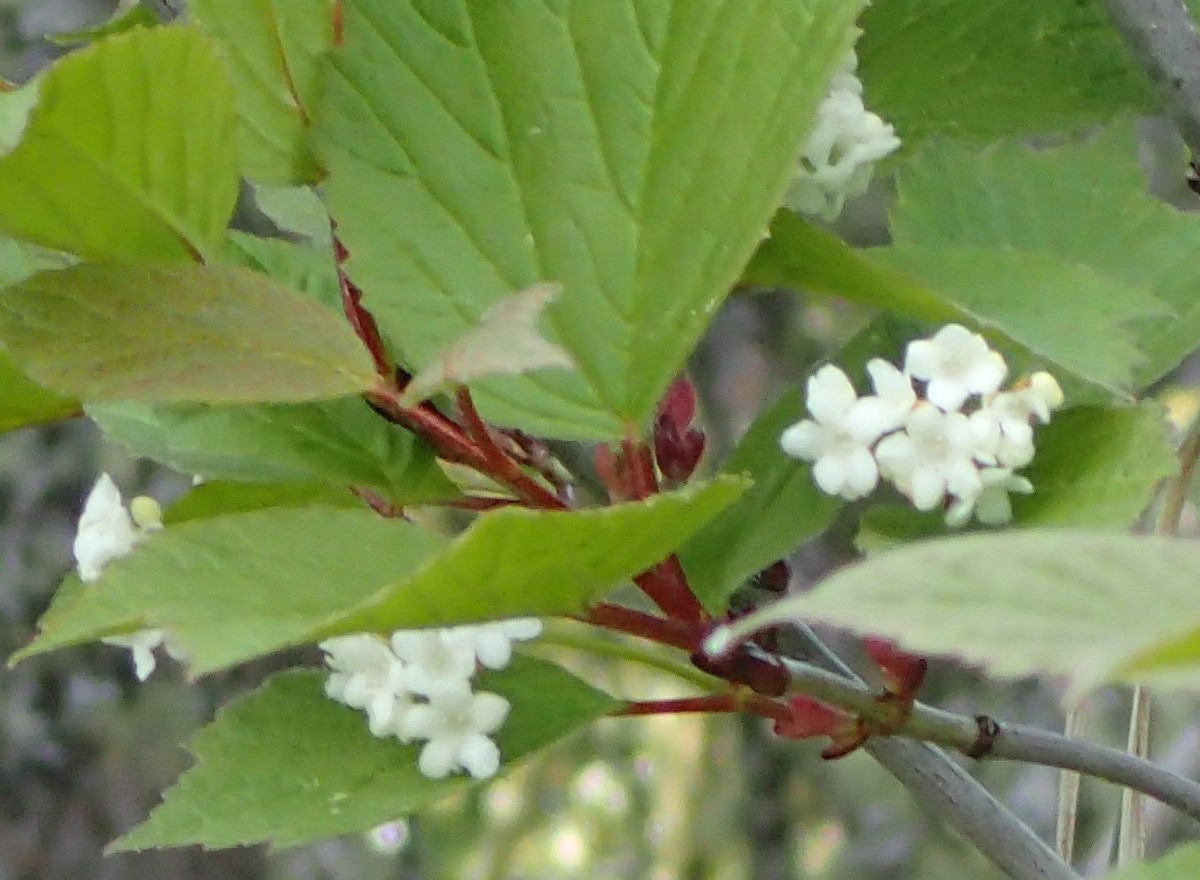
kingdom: Plantae
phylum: Tracheophyta
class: Magnoliopsida
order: Dipsacales
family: Viburnaceae
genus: Viburnum
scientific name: Viburnum edule
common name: Mooseberry
